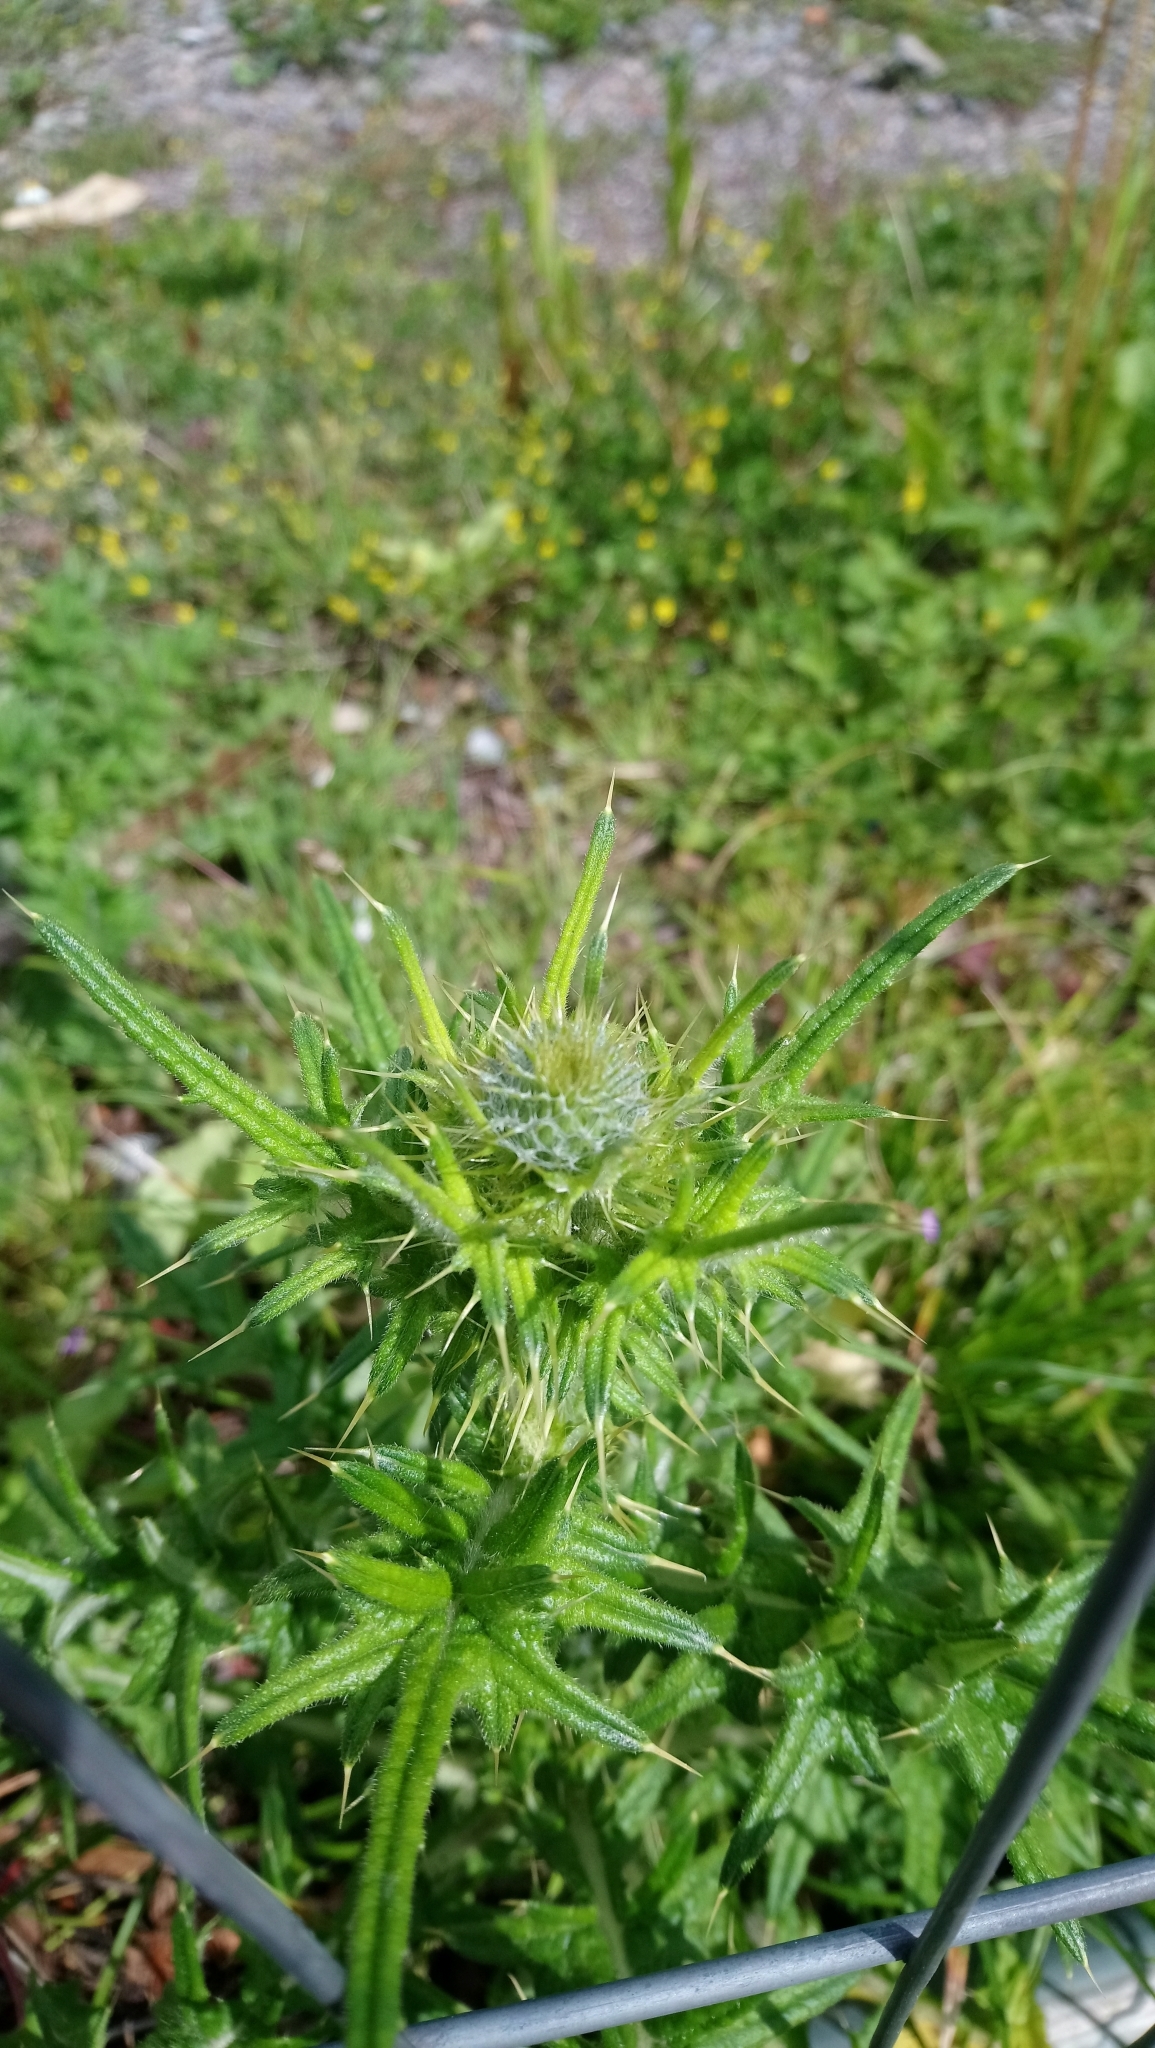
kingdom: Plantae
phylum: Tracheophyta
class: Magnoliopsida
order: Asterales
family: Asteraceae
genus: Cirsium
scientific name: Cirsium vulgare
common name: Bull thistle
